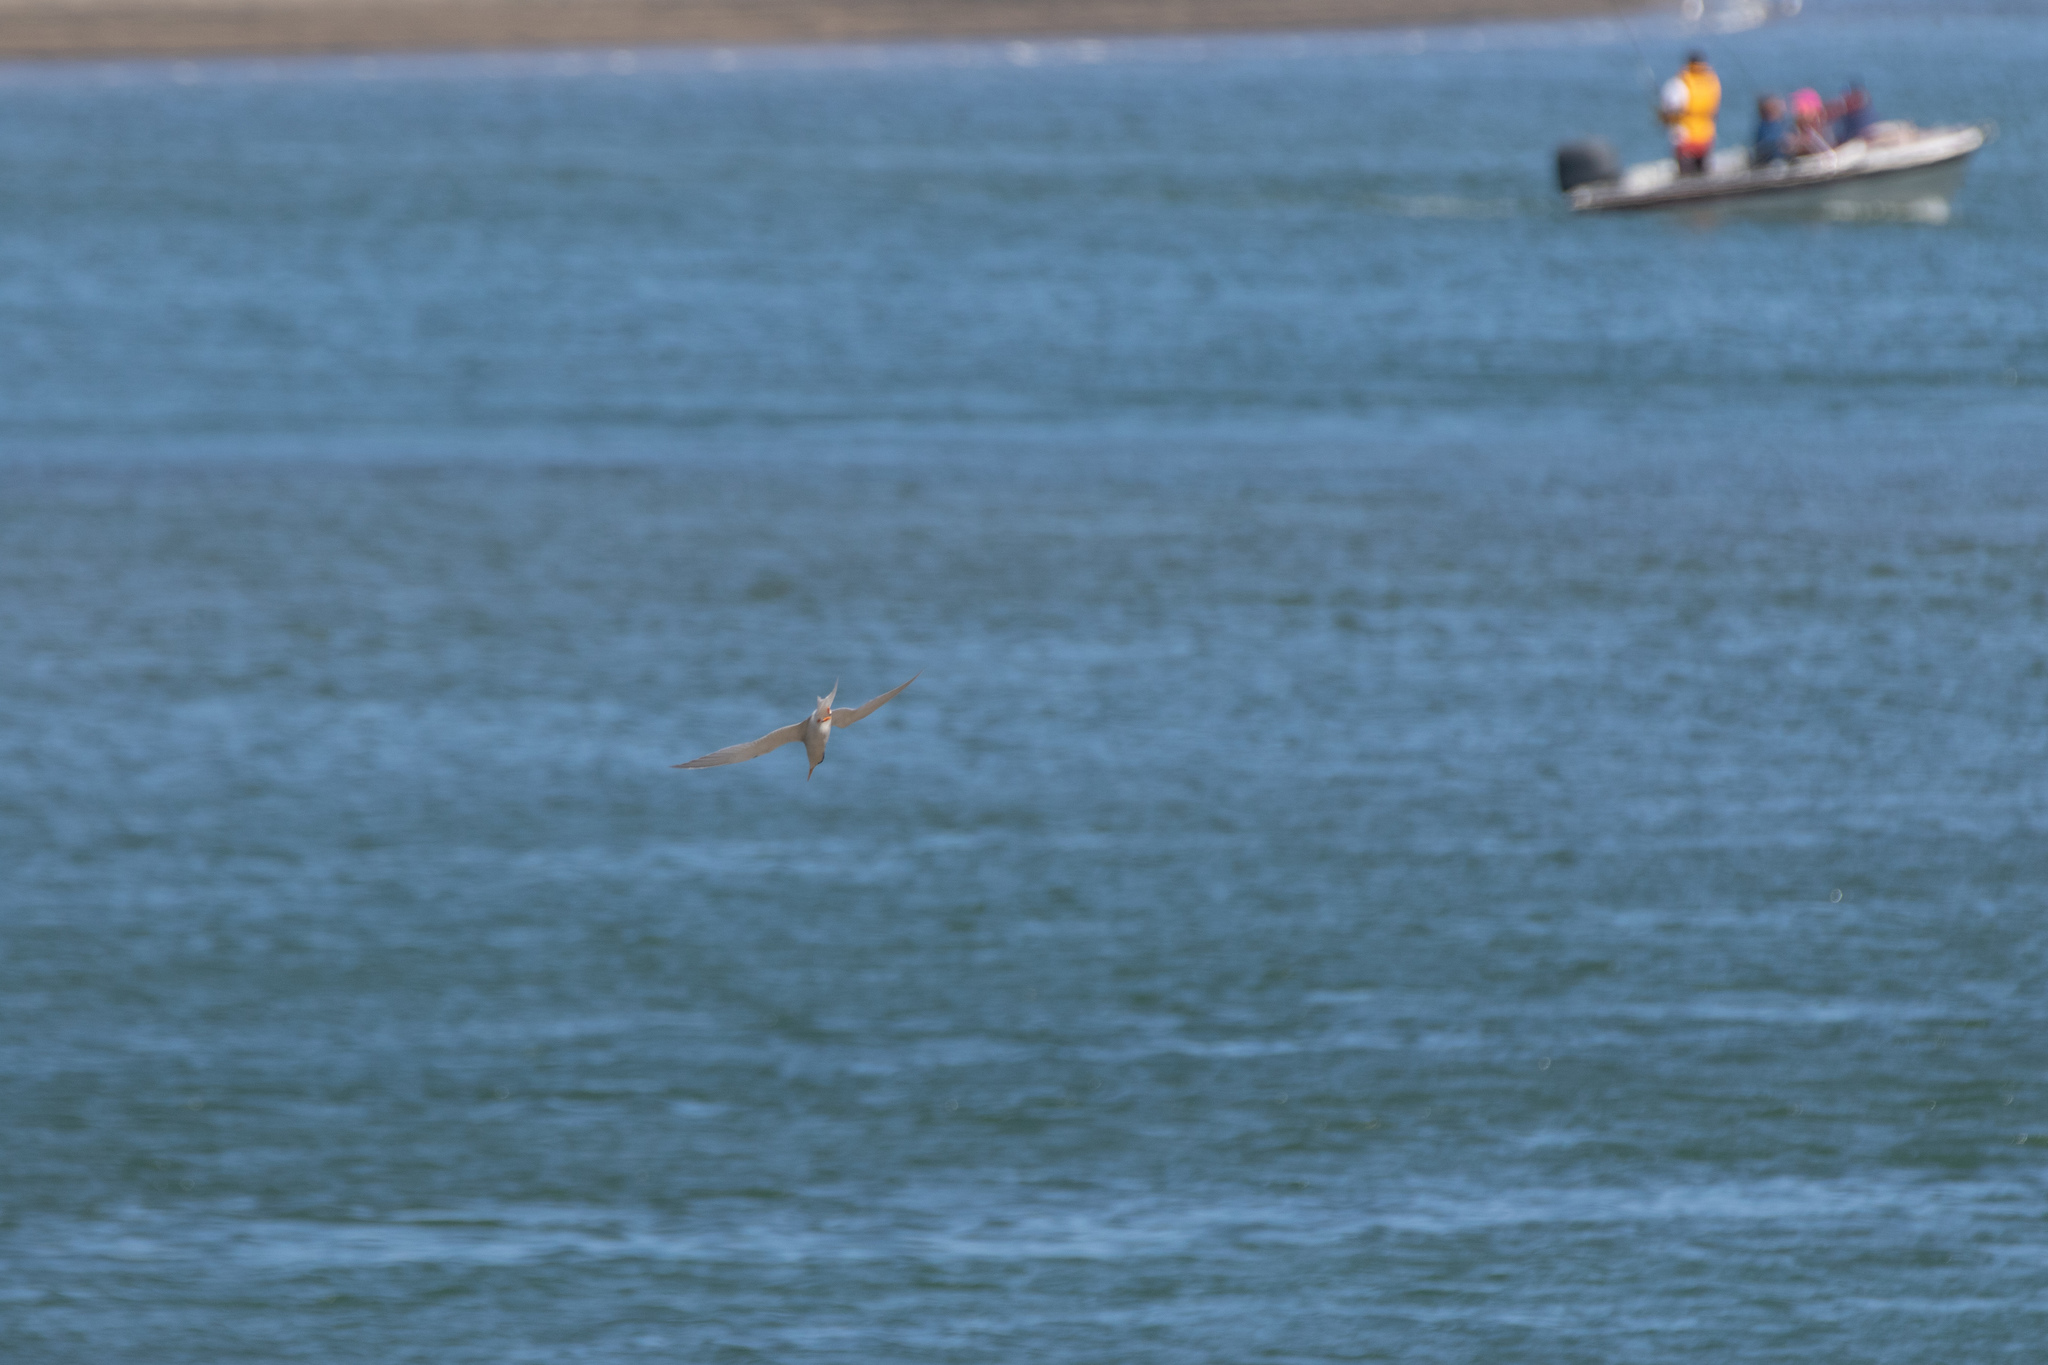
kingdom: Animalia
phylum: Chordata
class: Aves
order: Charadriiformes
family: Laridae
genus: Sternula
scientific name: Sternula nereis
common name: Fairy tern
